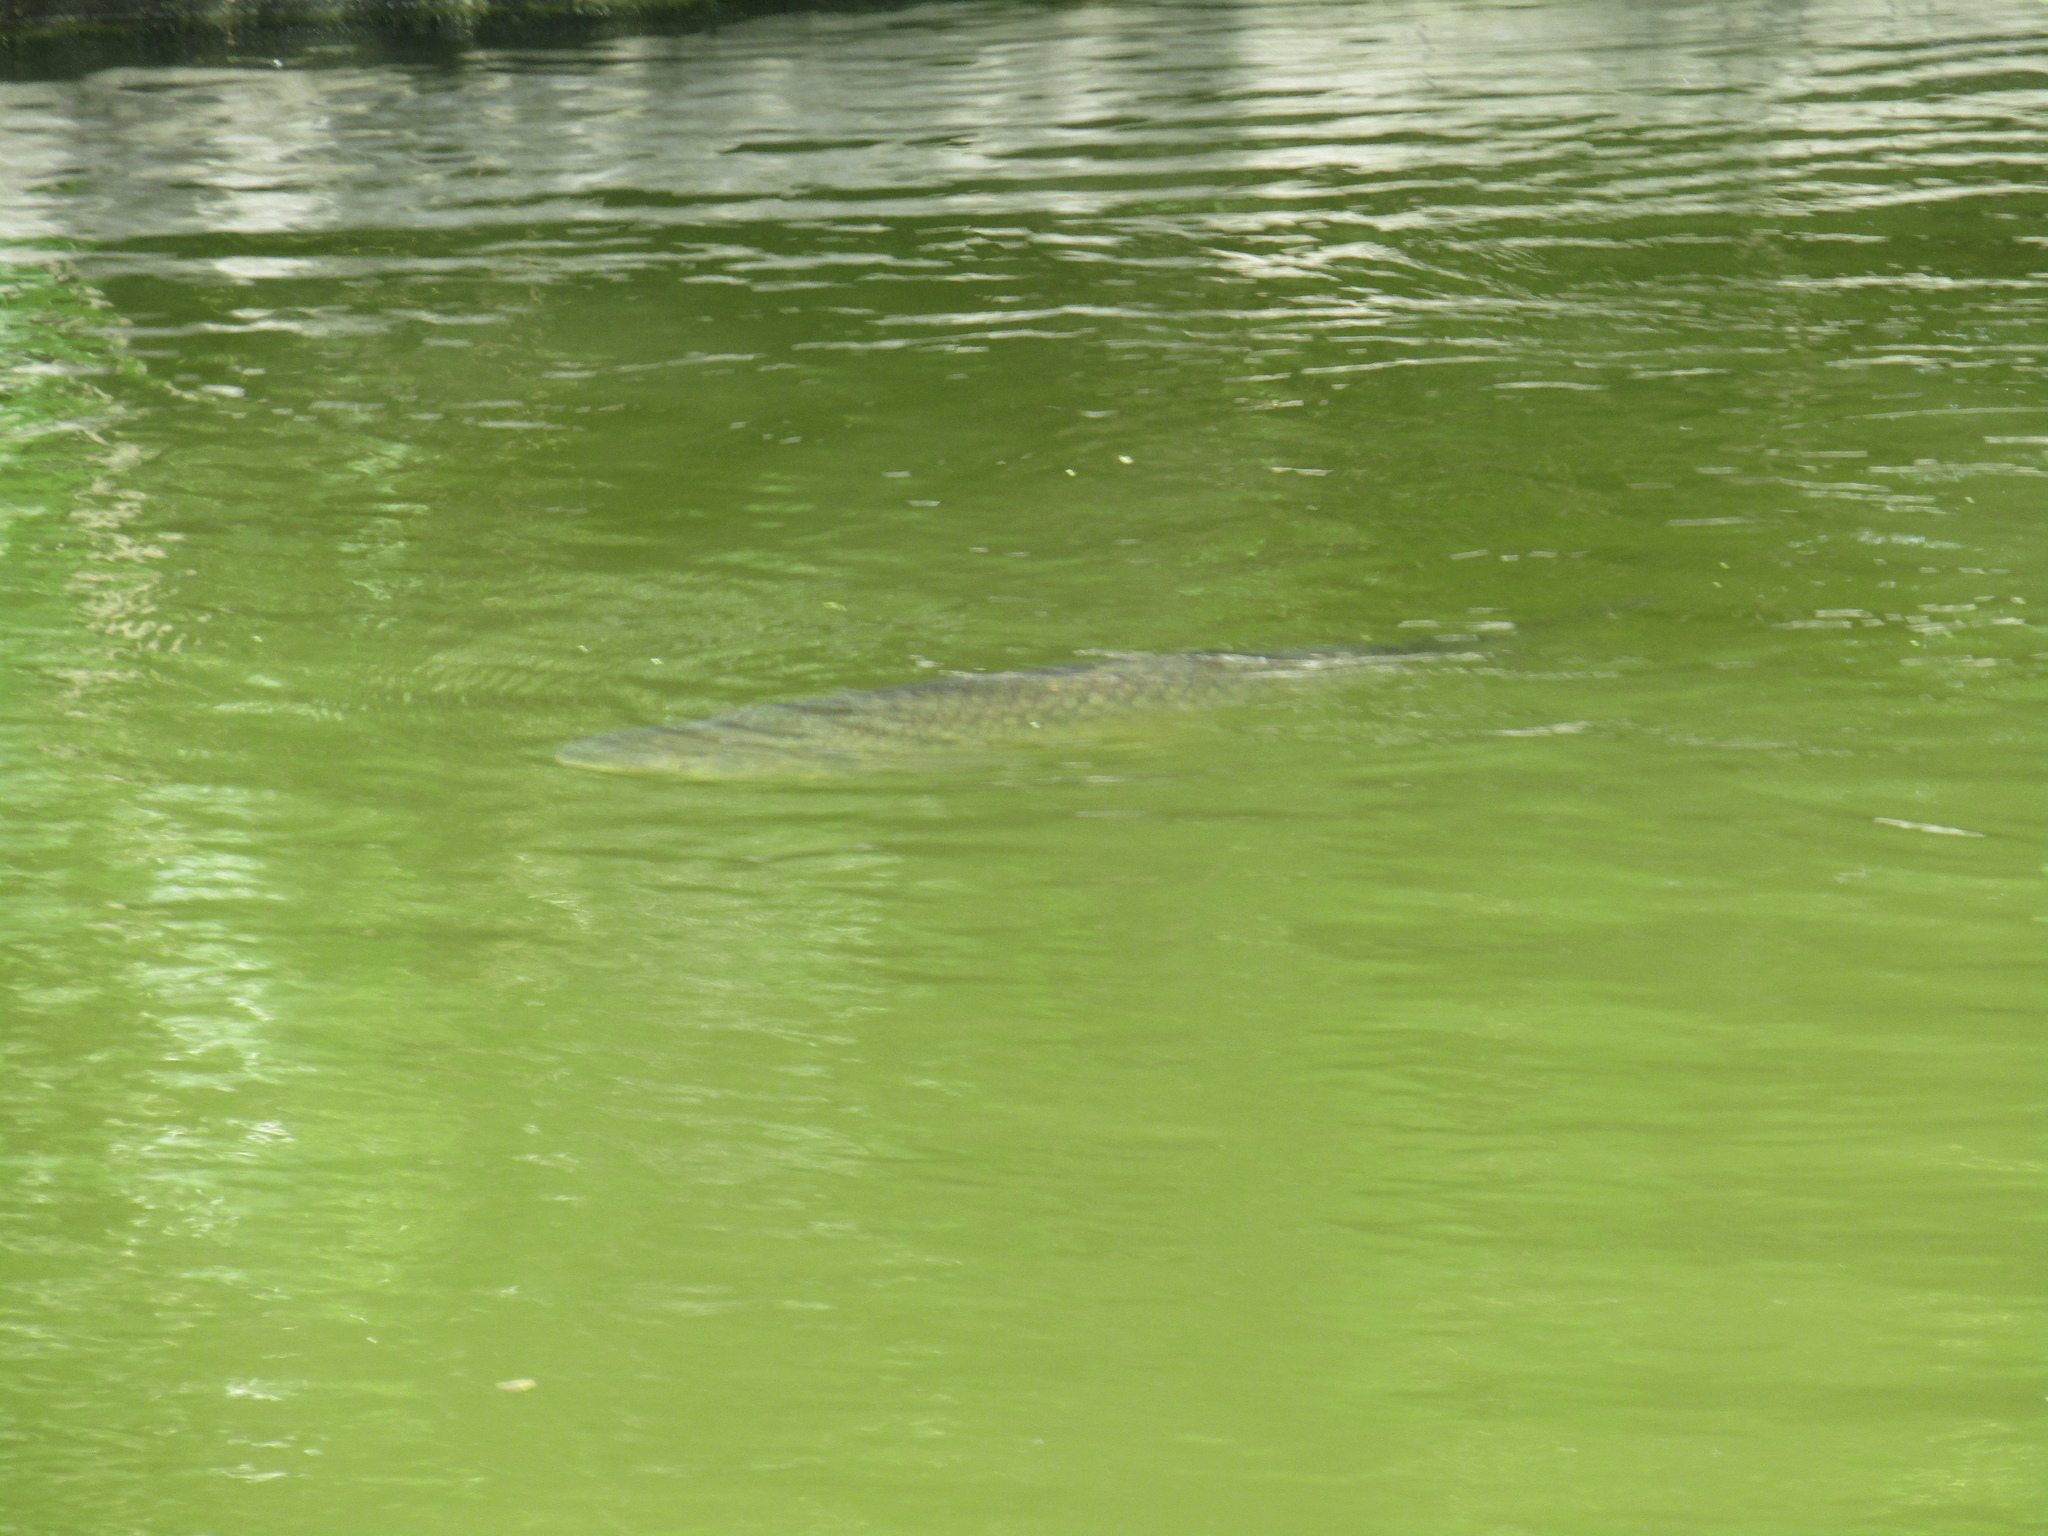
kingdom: Animalia
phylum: Chordata
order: Cypriniformes
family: Cyprinidae
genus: Ctenopharyngodon
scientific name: Ctenopharyngodon idella
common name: Grass carp
